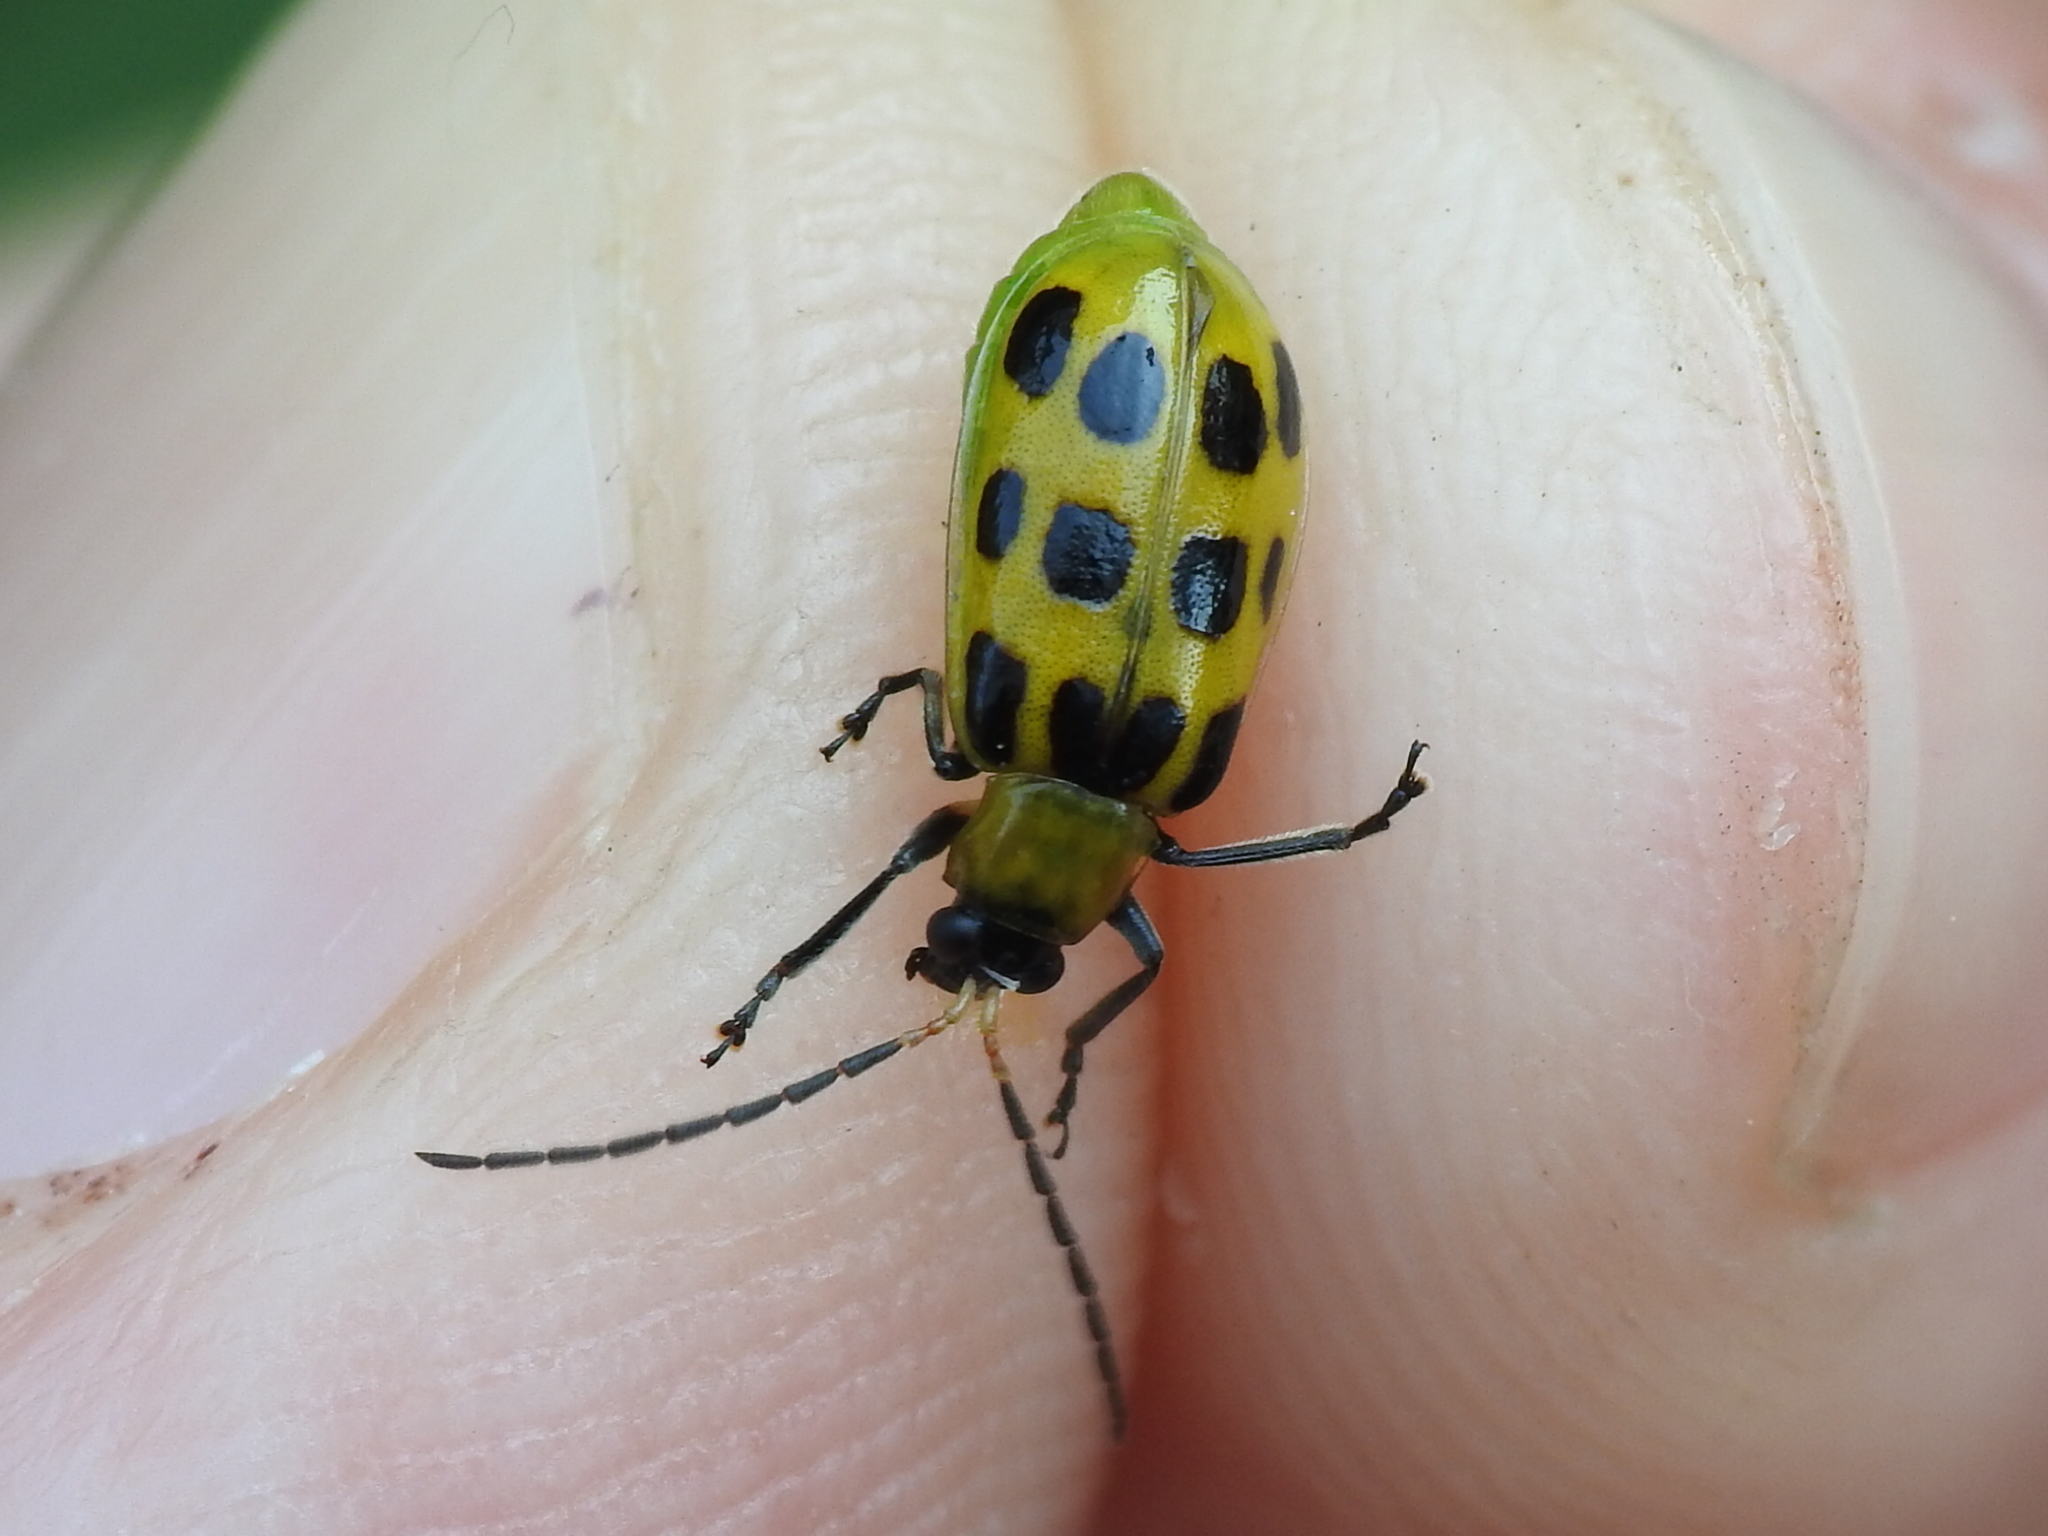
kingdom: Animalia
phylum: Arthropoda
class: Insecta
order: Coleoptera
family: Chrysomelidae
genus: Diabrotica
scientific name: Diabrotica undecimpunctata
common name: Spotted cucumber beetle
